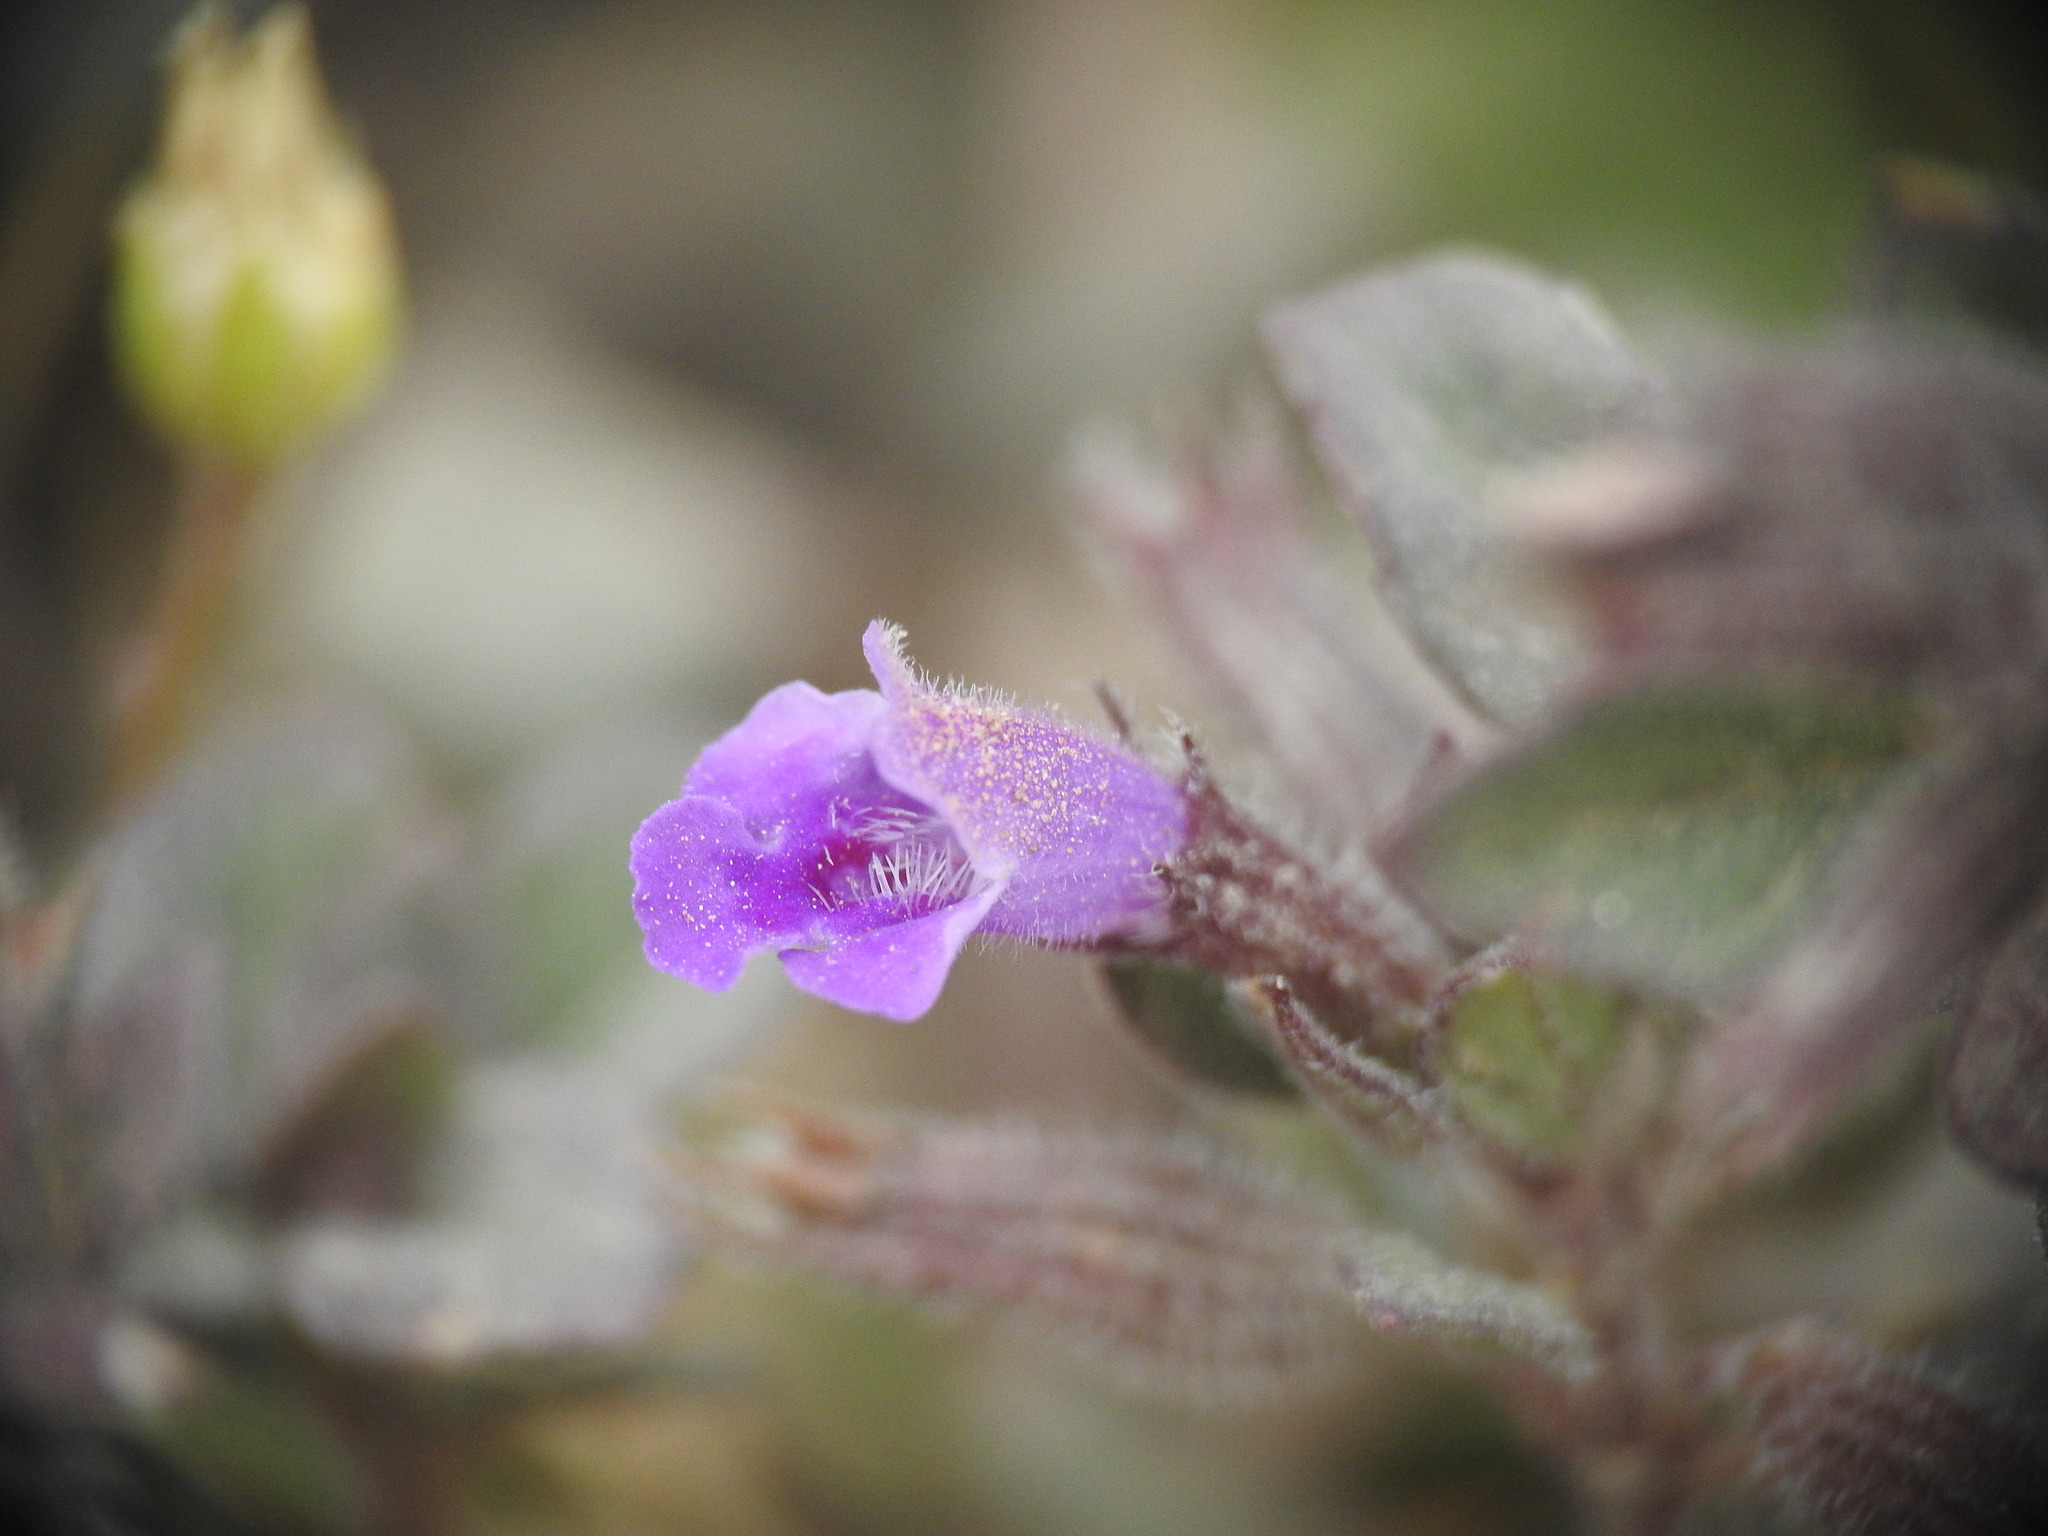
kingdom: Plantae
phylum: Tracheophyta
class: Magnoliopsida
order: Lamiales
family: Lamiaceae
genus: Clinopodium
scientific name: Clinopodium alpinum
